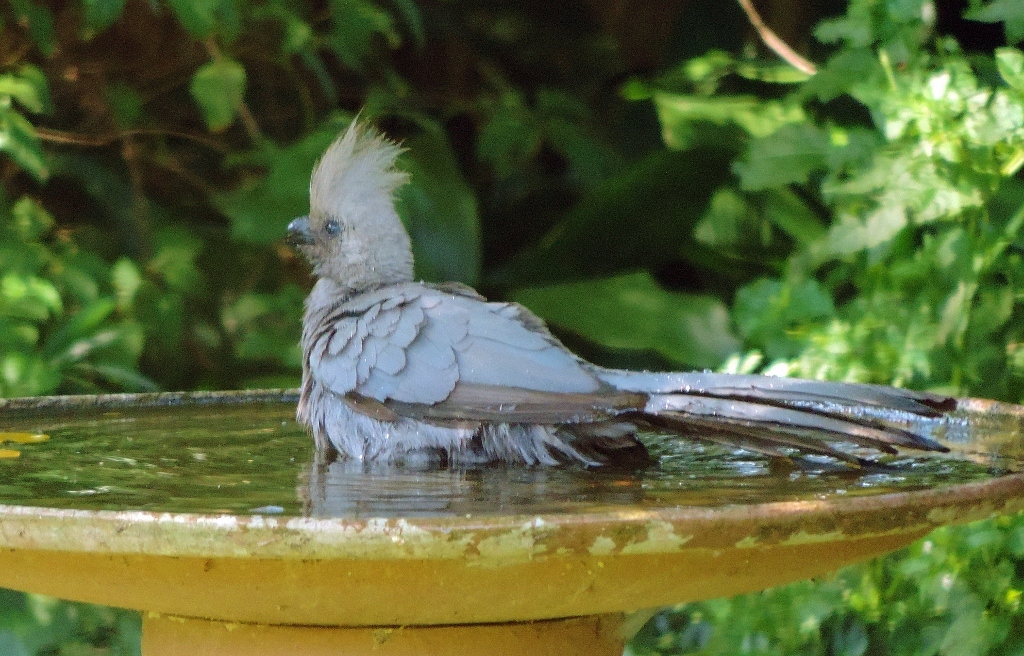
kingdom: Animalia
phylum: Chordata
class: Aves
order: Musophagiformes
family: Musophagidae
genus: Corythaixoides
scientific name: Corythaixoides concolor
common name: Grey go-away-bird
